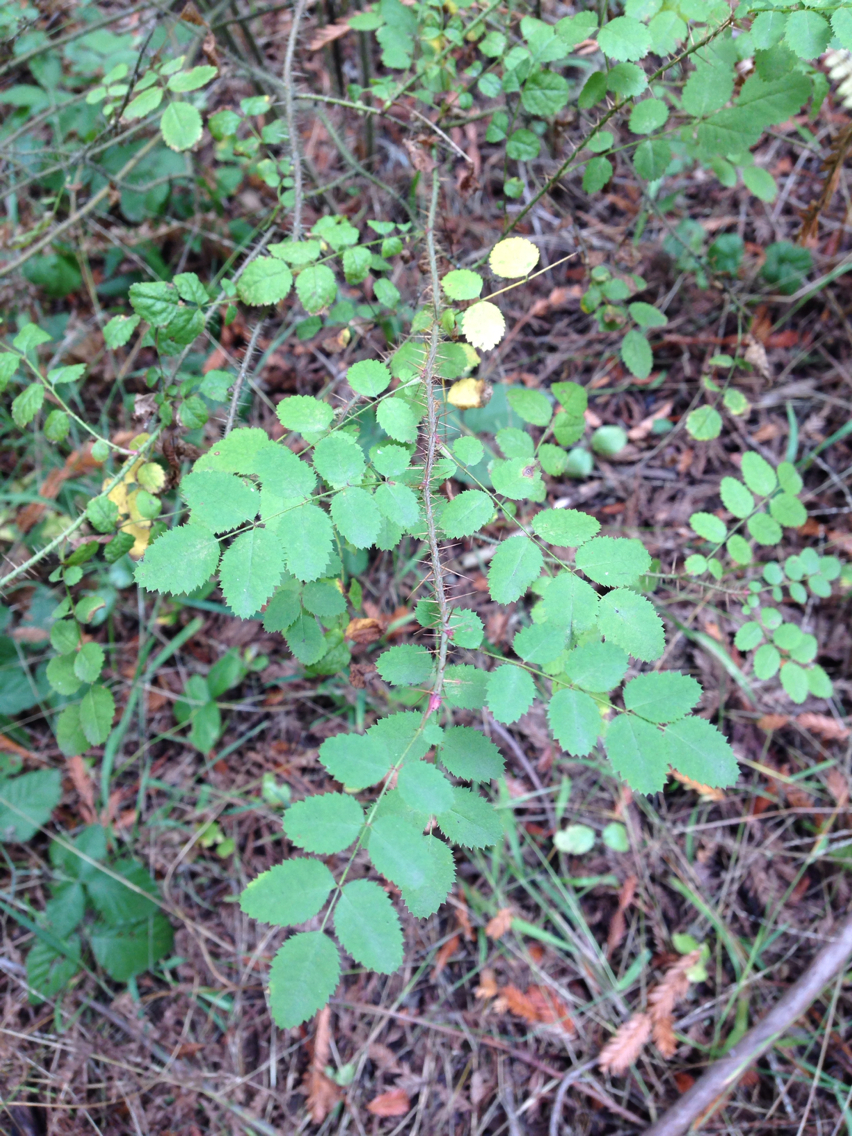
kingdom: Plantae
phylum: Tracheophyta
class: Magnoliopsida
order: Rosales
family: Rosaceae
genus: Rosa
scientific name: Rosa gymnocarpa
